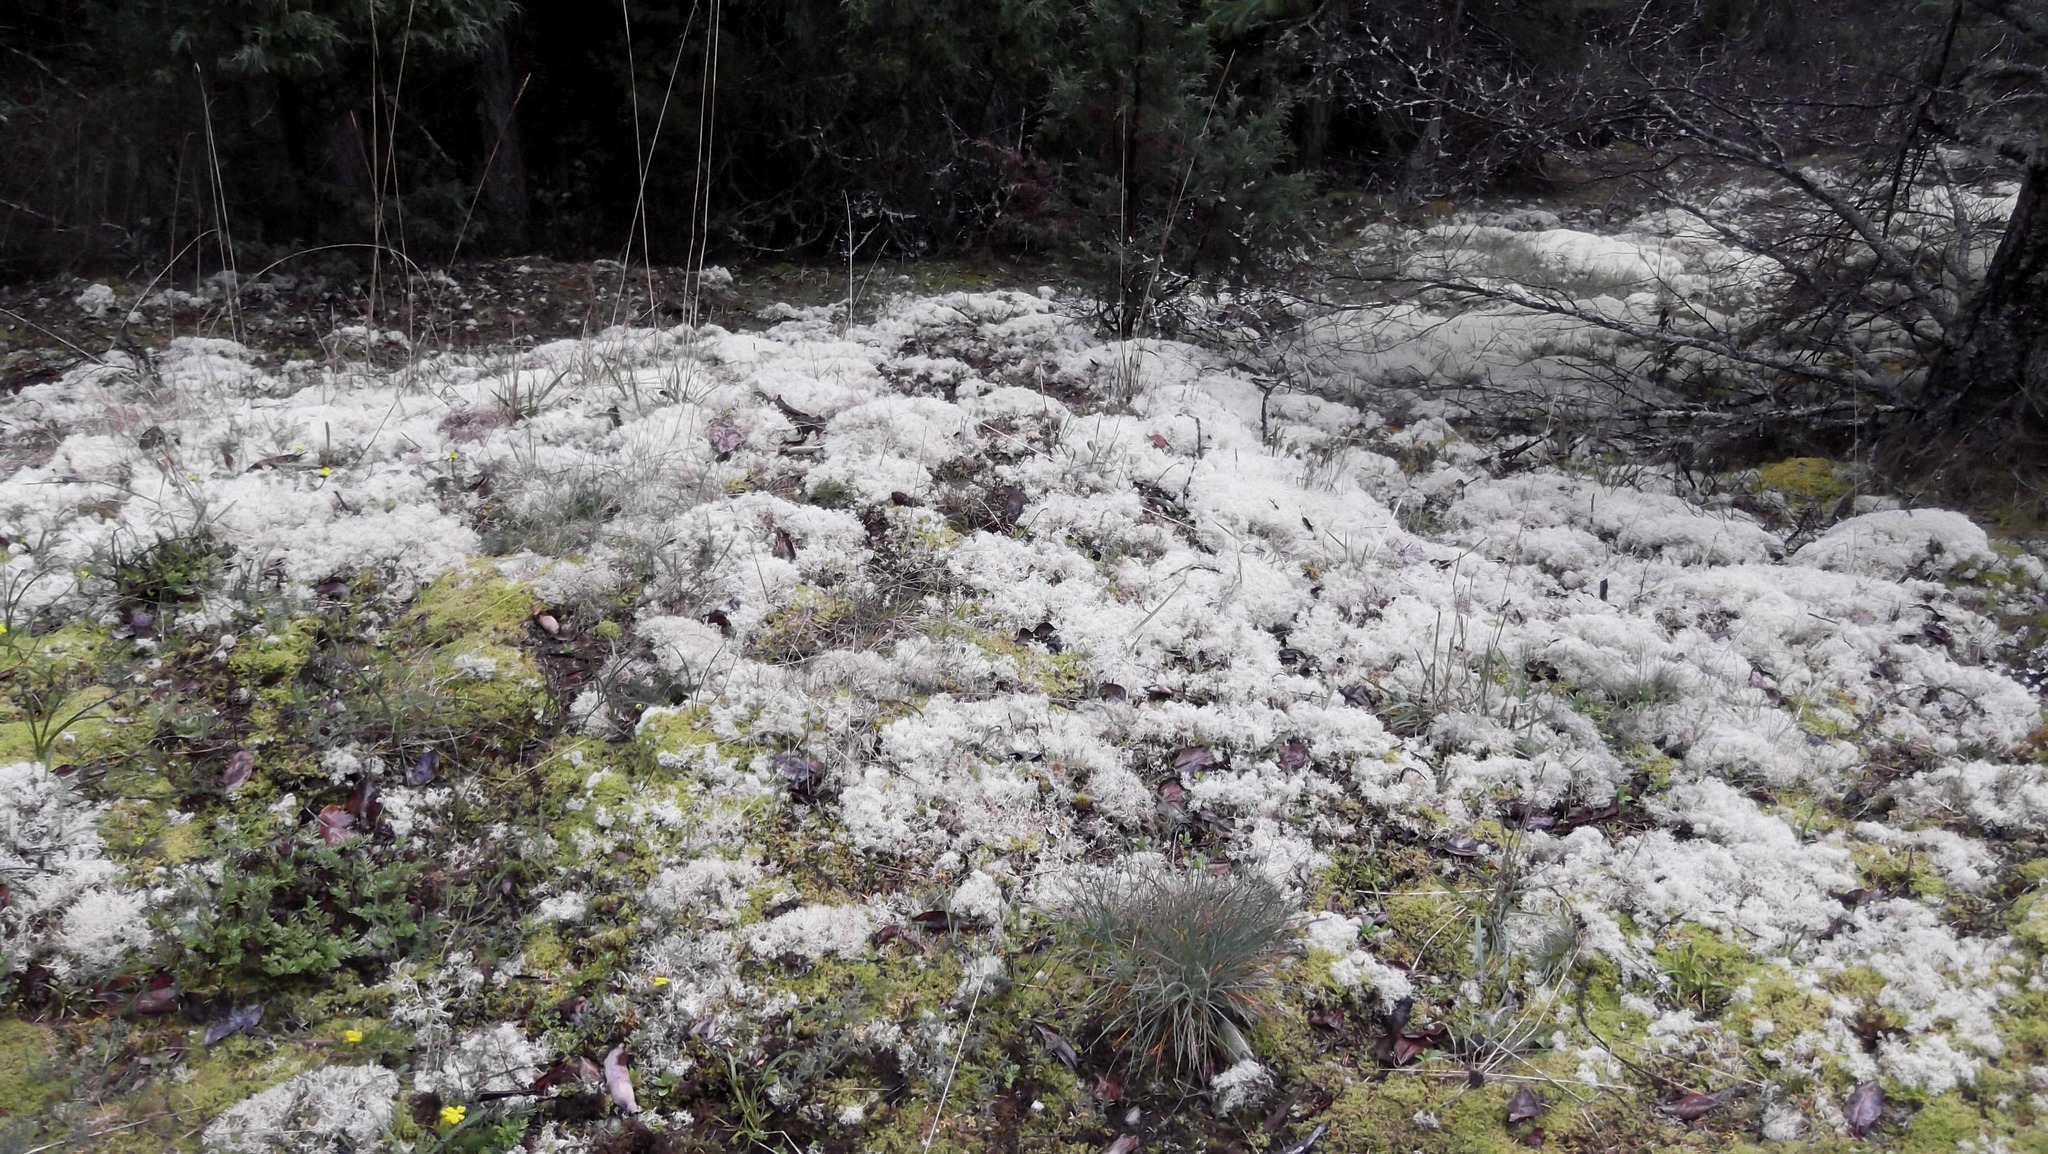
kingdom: Fungi
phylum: Ascomycota
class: Lecanoromycetes
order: Lecanorales
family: Cladoniaceae
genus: Cladonia
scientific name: Cladonia portentosa
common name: Reindeer lichen
